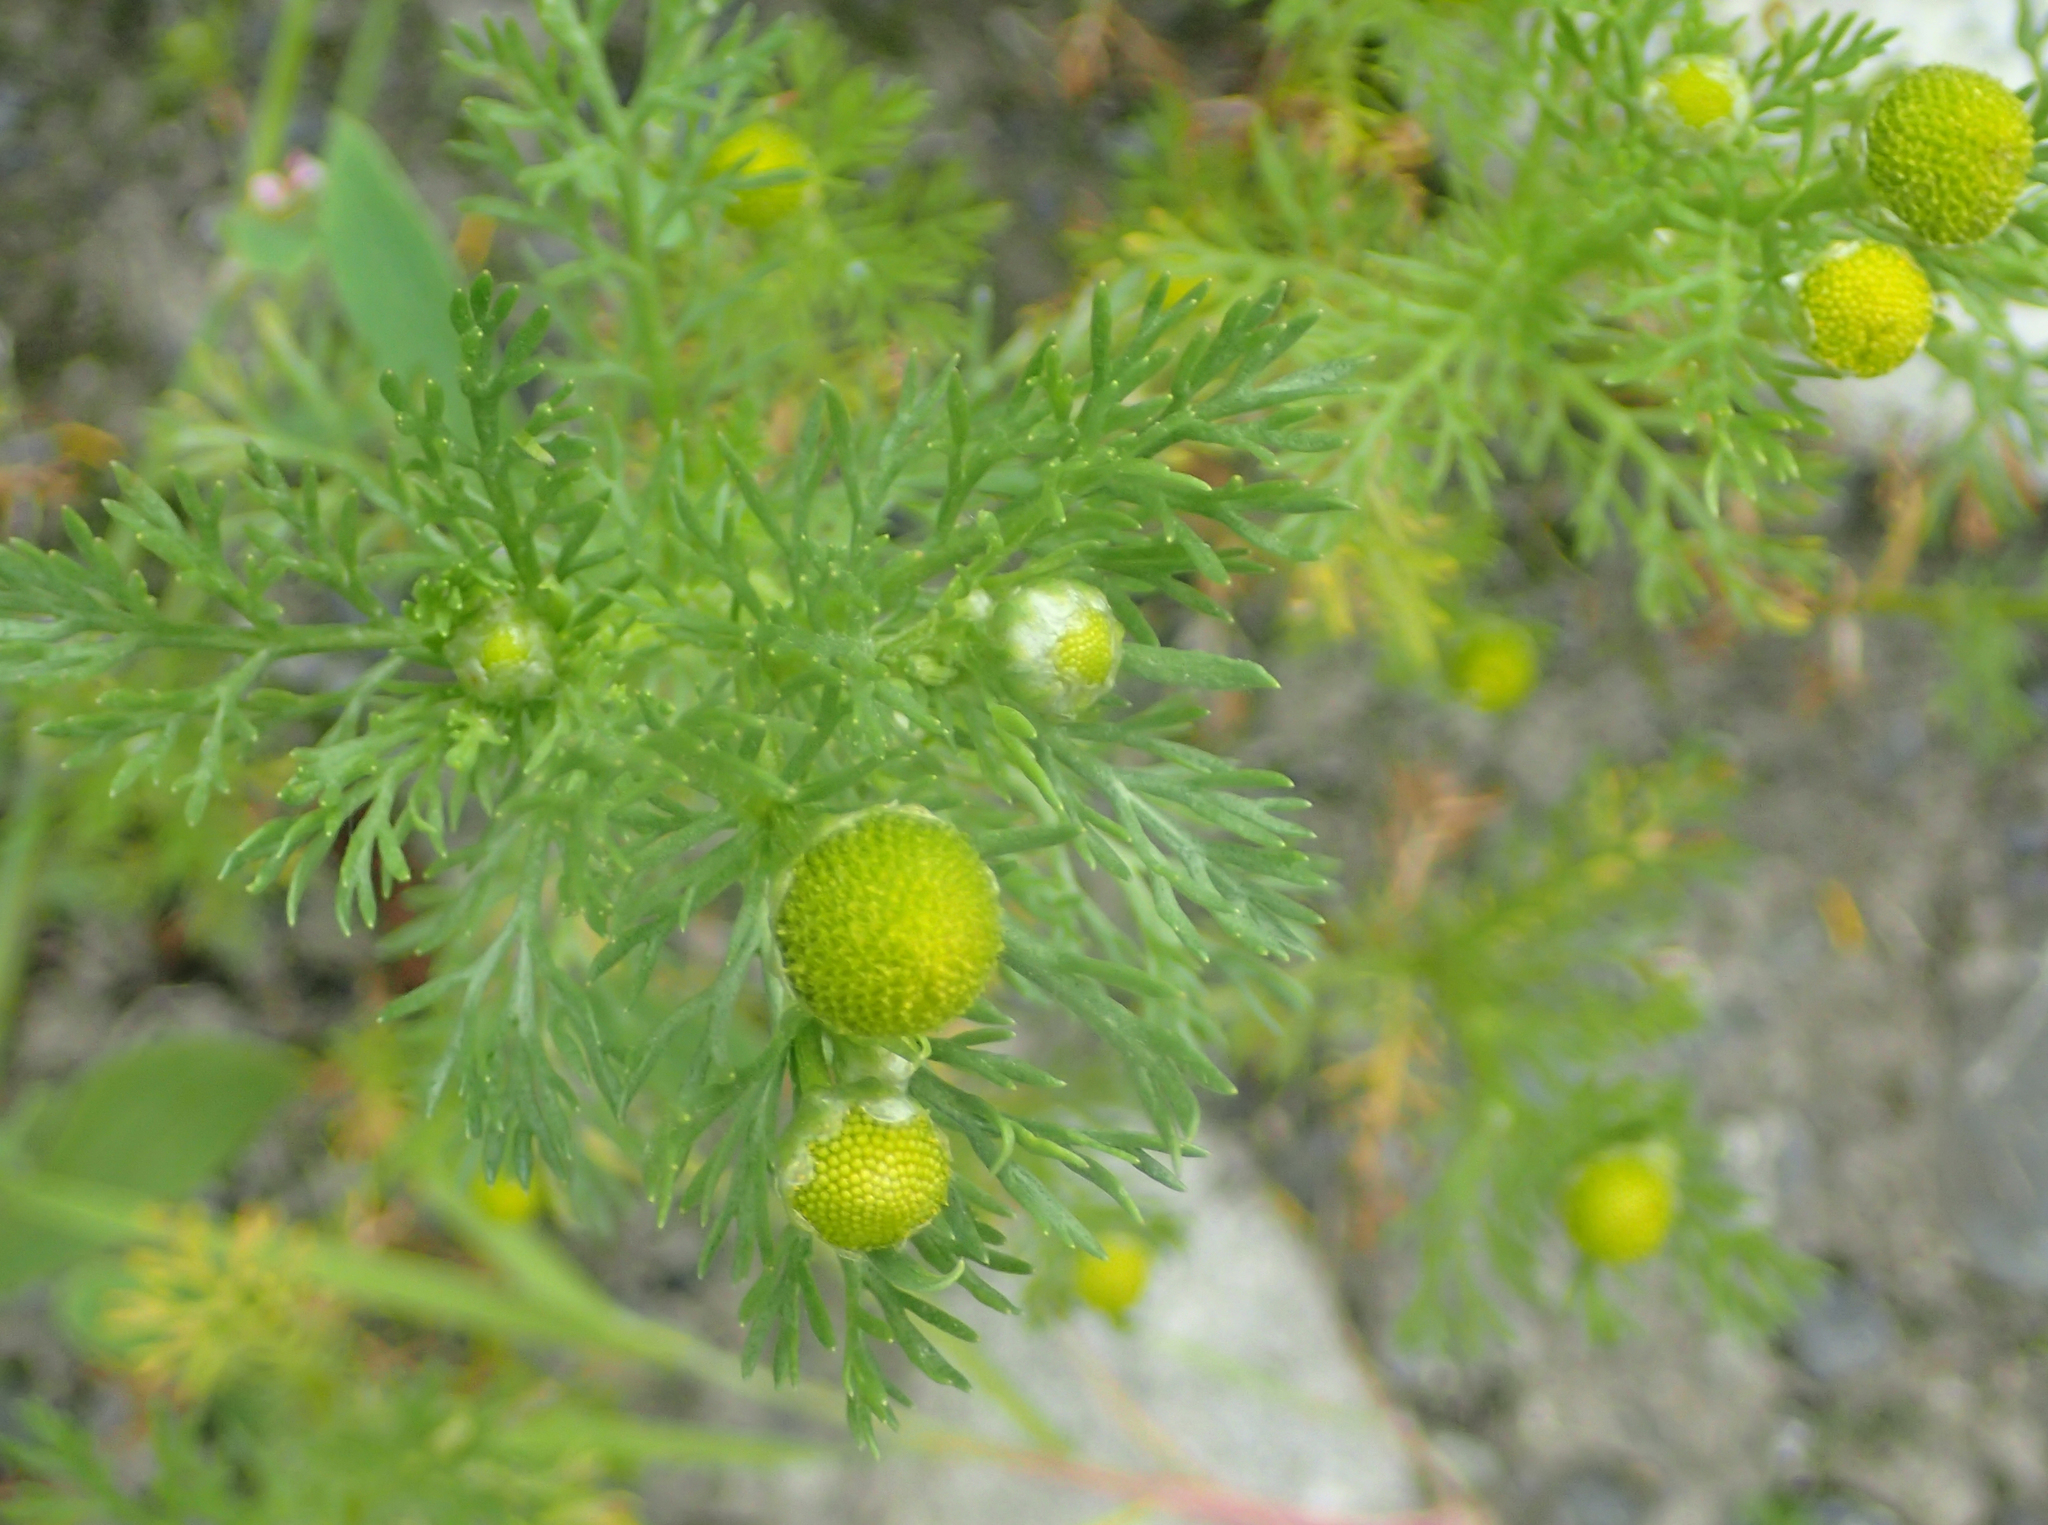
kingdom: Plantae
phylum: Tracheophyta
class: Magnoliopsida
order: Asterales
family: Asteraceae
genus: Matricaria
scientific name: Matricaria discoidea
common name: Disc mayweed
